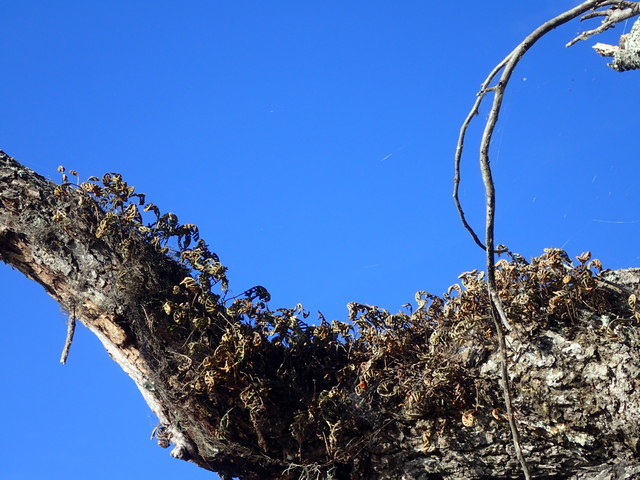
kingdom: Plantae
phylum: Tracheophyta
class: Polypodiopsida
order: Polypodiales
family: Polypodiaceae
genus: Pleopeltis
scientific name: Pleopeltis michauxiana
